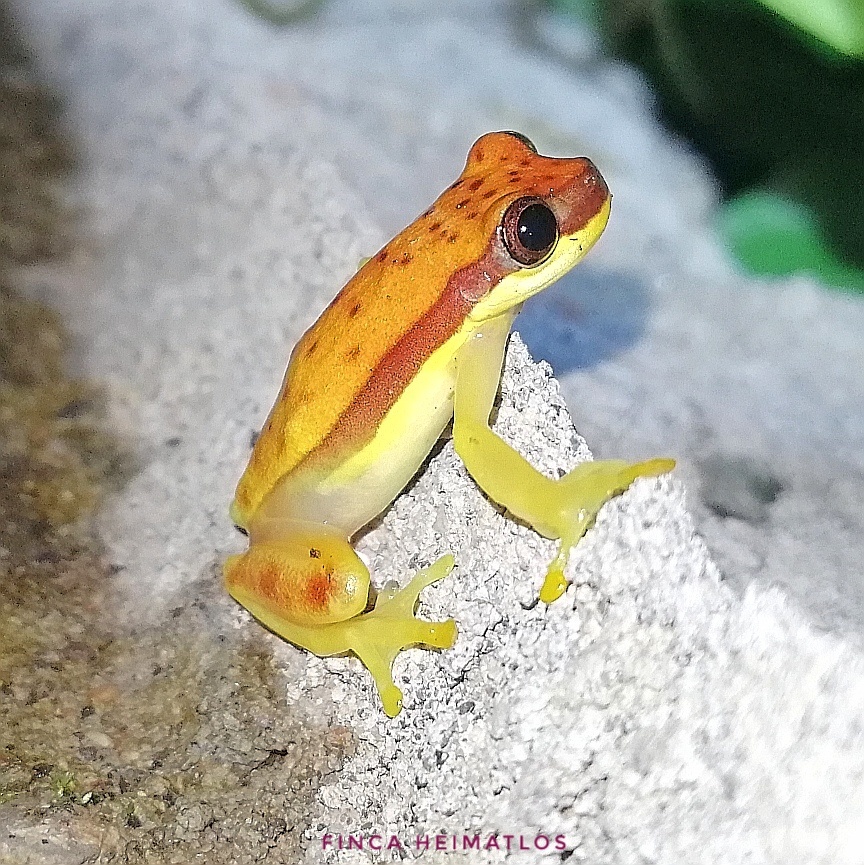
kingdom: Animalia
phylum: Chordata
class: Amphibia
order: Anura
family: Hylidae
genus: Dendropsophus
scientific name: Dendropsophus rhodopeplus
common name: Red-skirted treefrog
